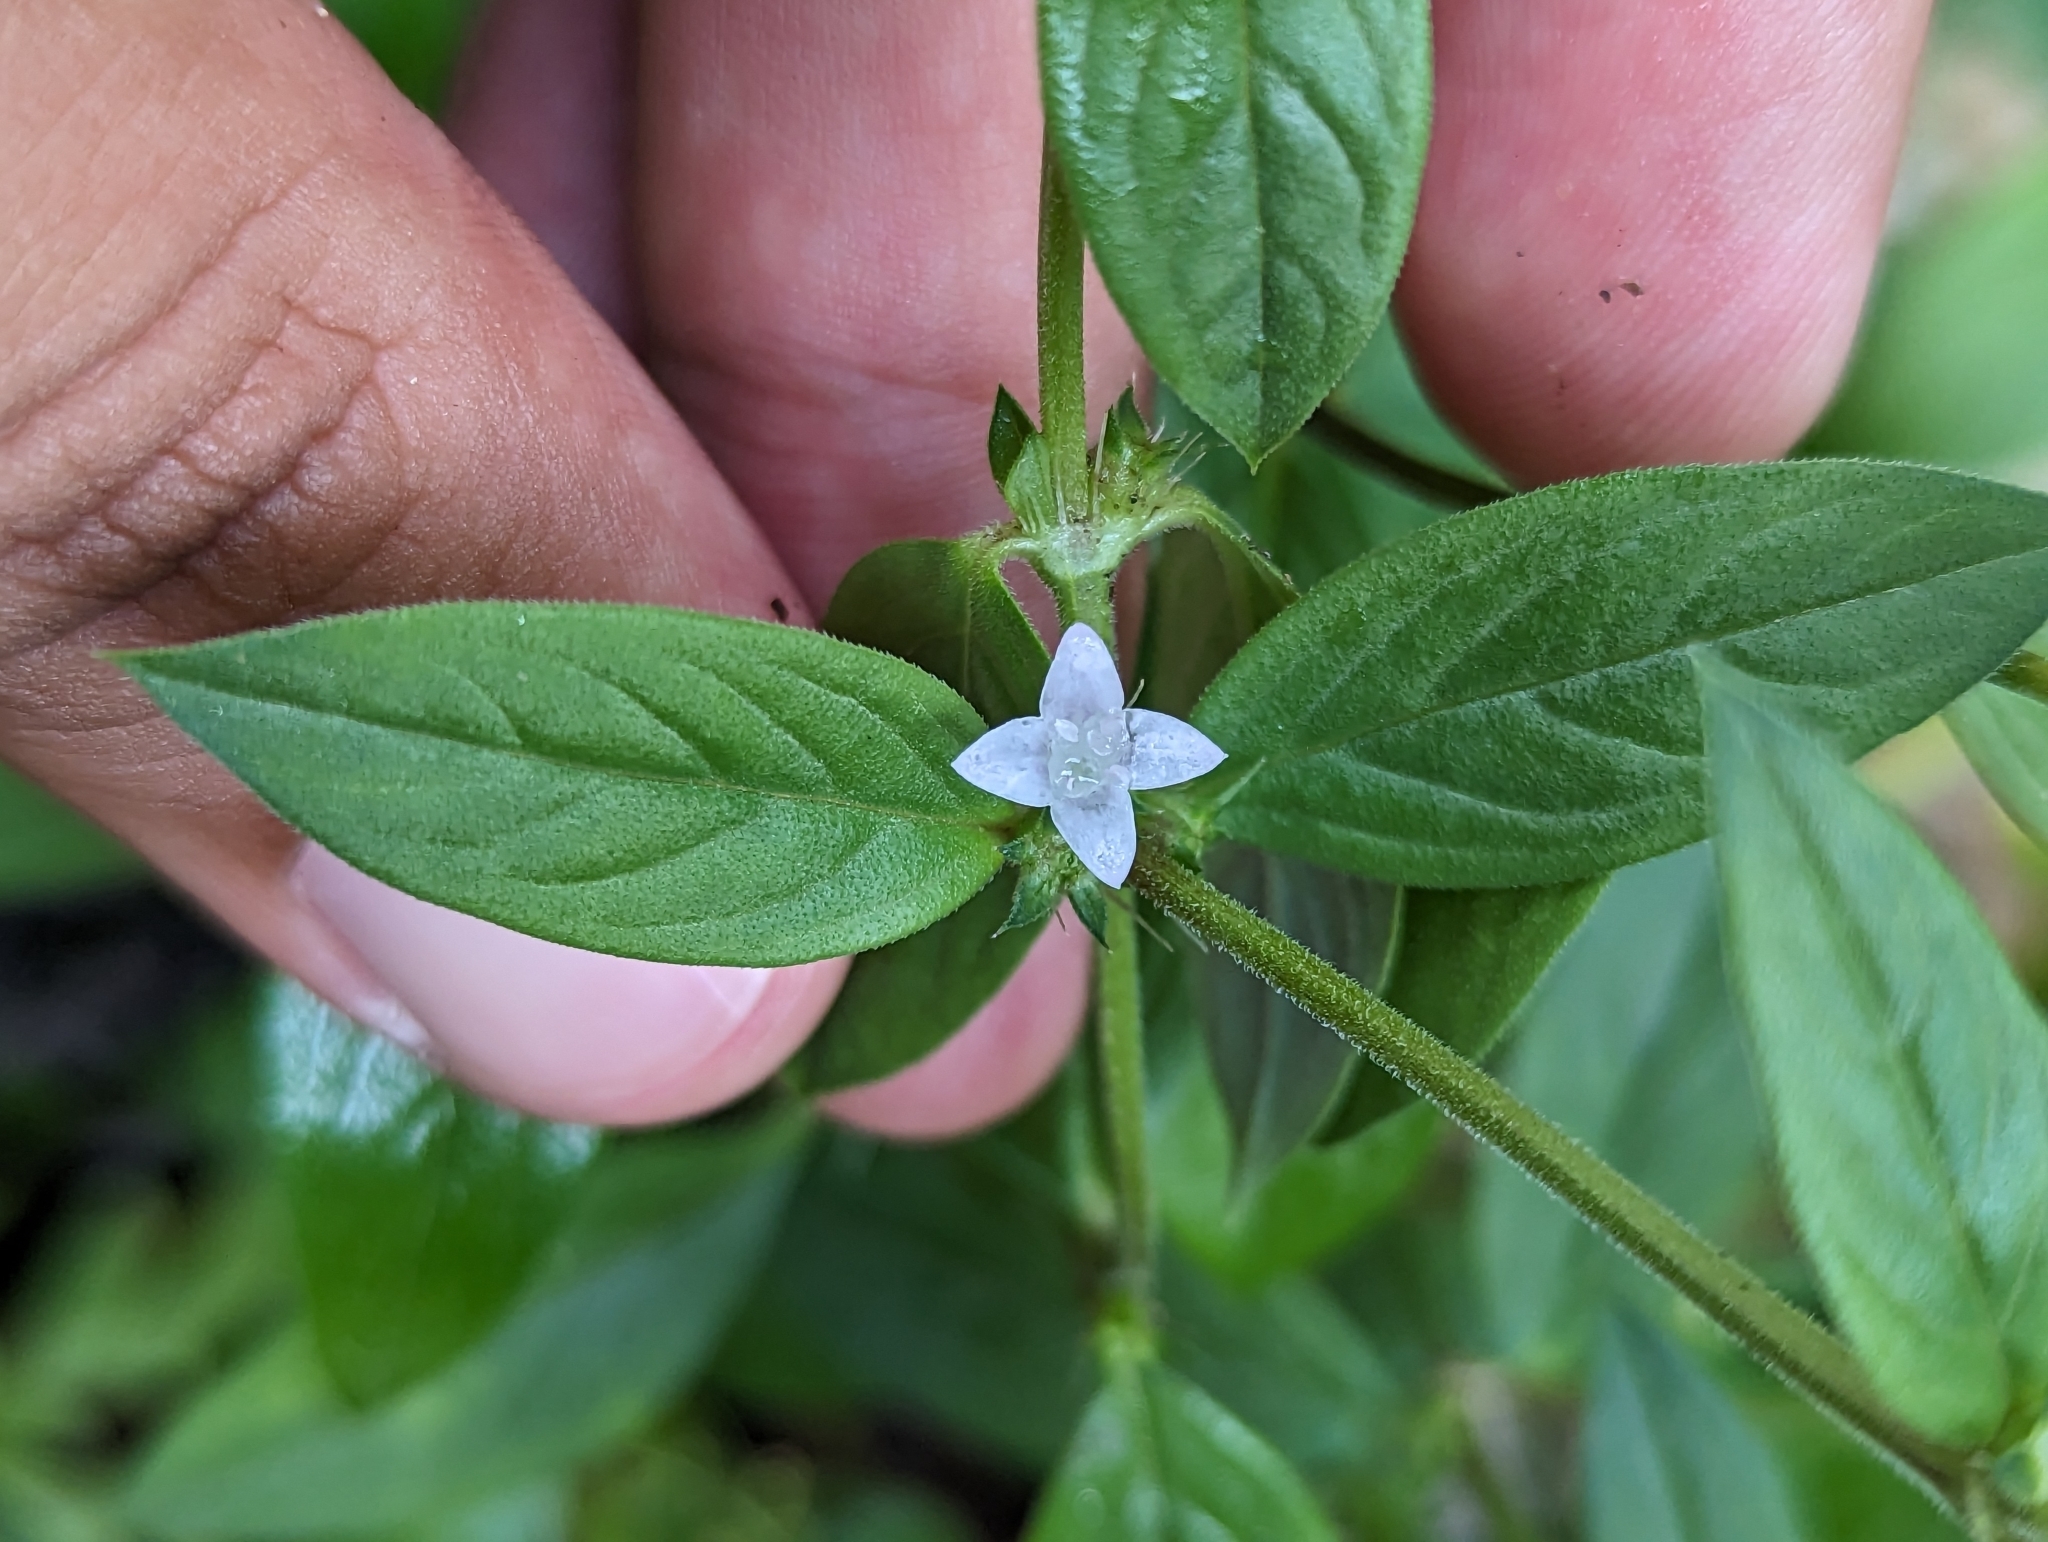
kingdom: Plantae
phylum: Tracheophyta
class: Magnoliopsida
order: Gentianales
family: Rubiaceae
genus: Richardia
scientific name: Richardia scabra
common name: Rough mexican clover
